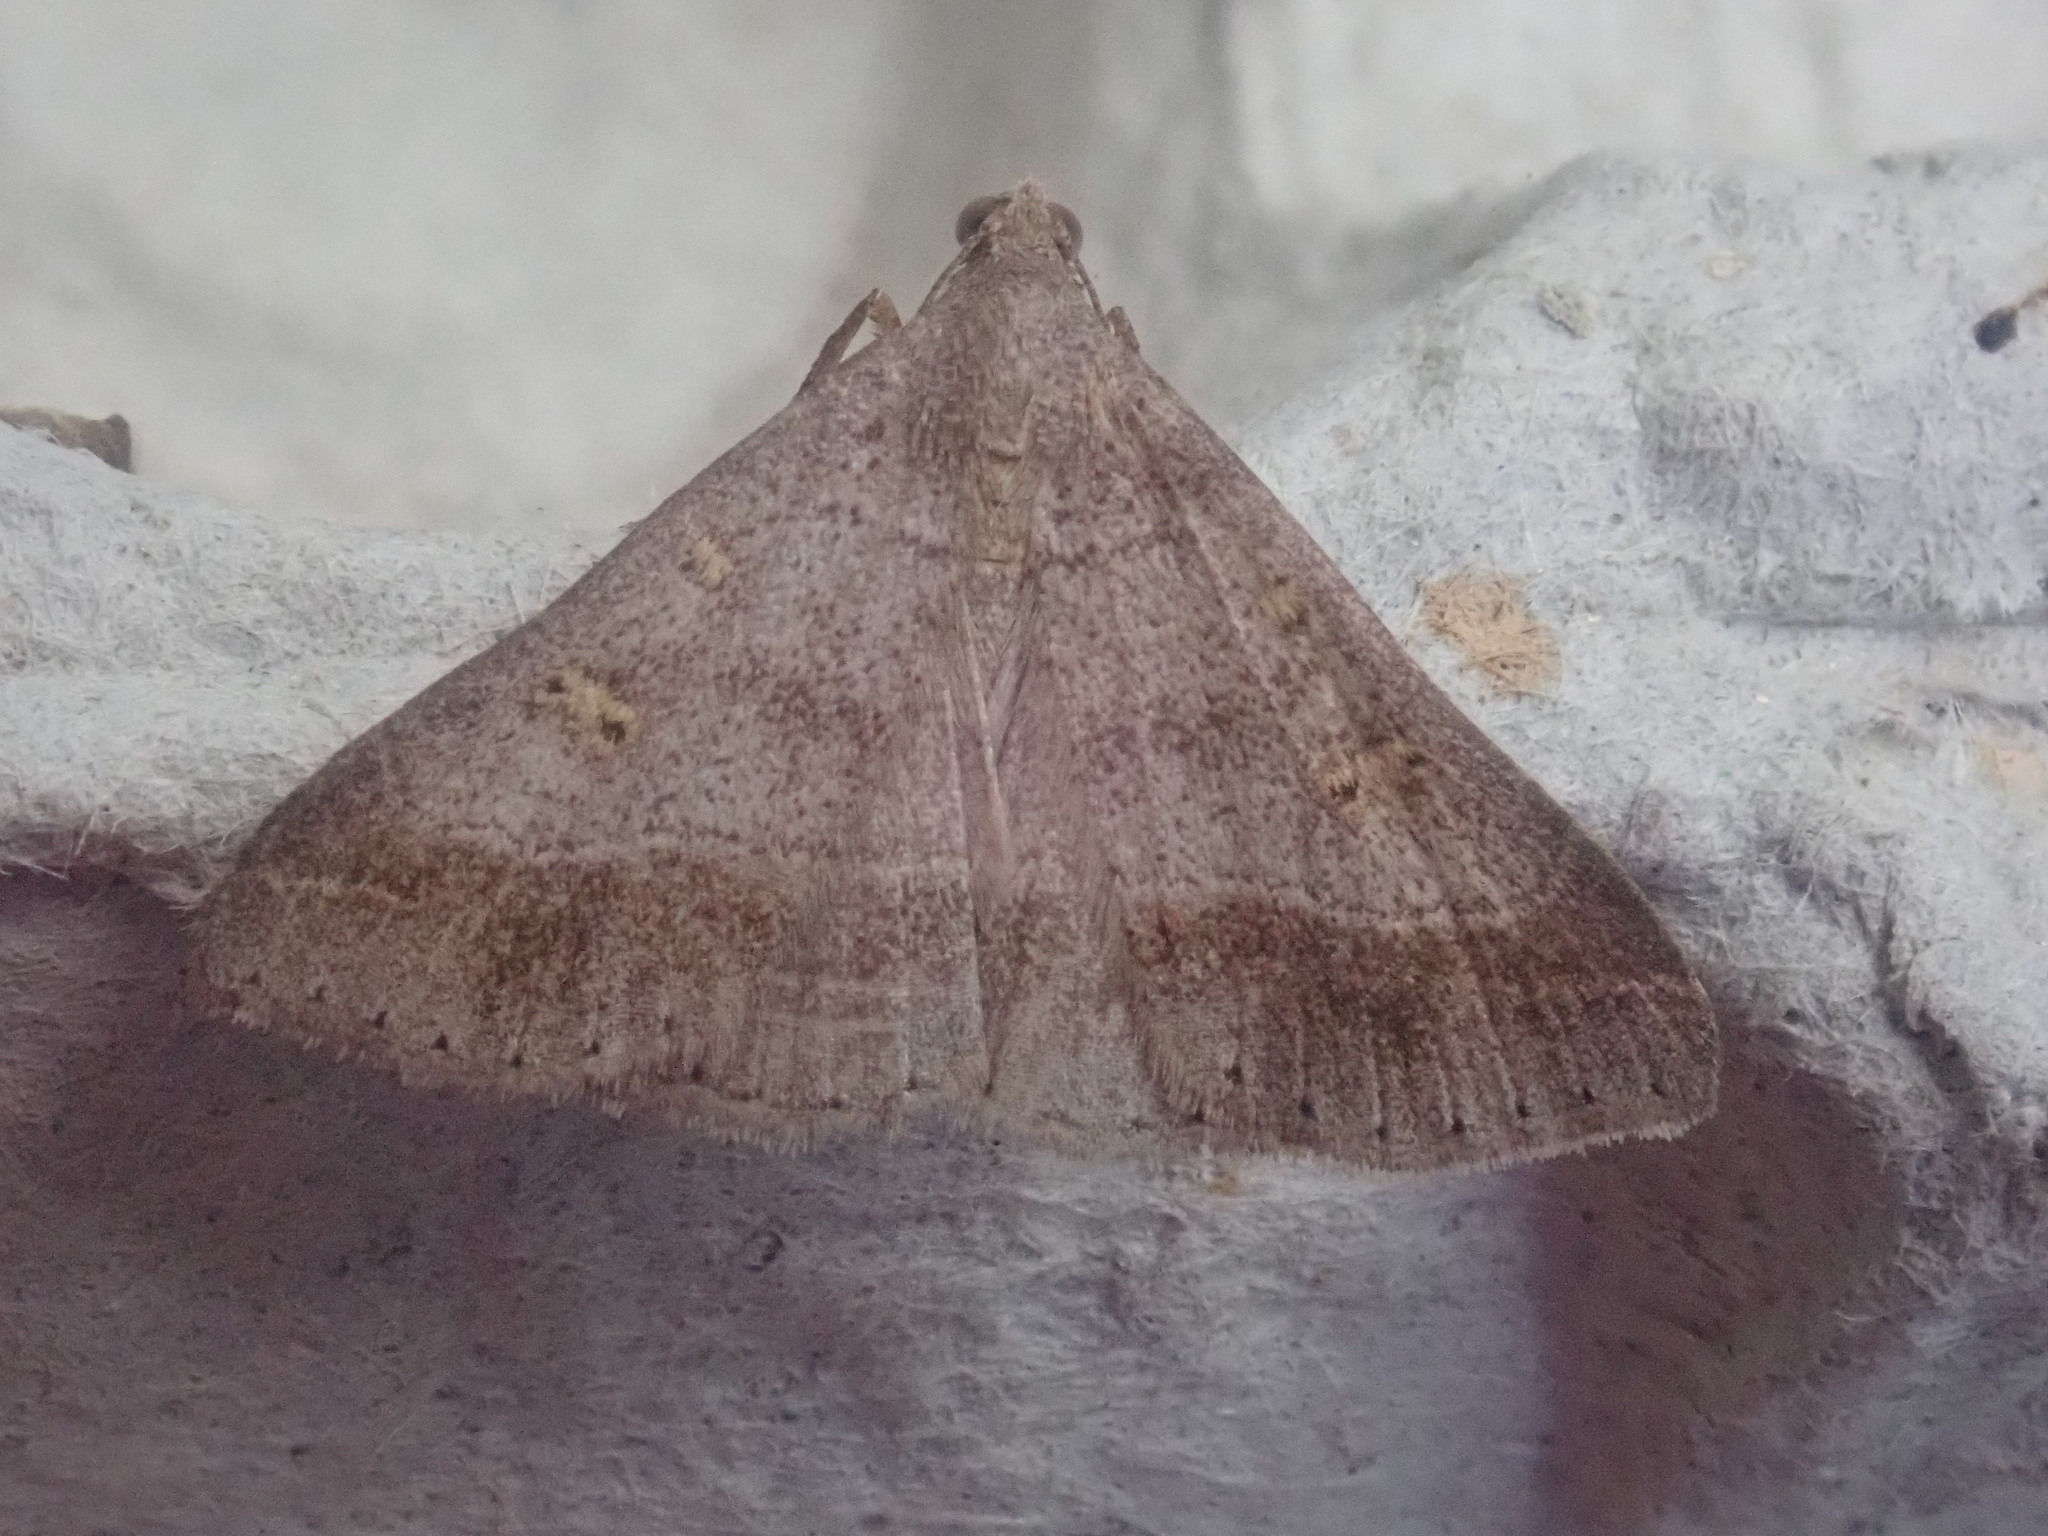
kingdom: Animalia
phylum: Arthropoda
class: Insecta
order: Lepidoptera
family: Erebidae
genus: Renia
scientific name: Renia flavipunctalis
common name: Yellow-spotted renia moth
